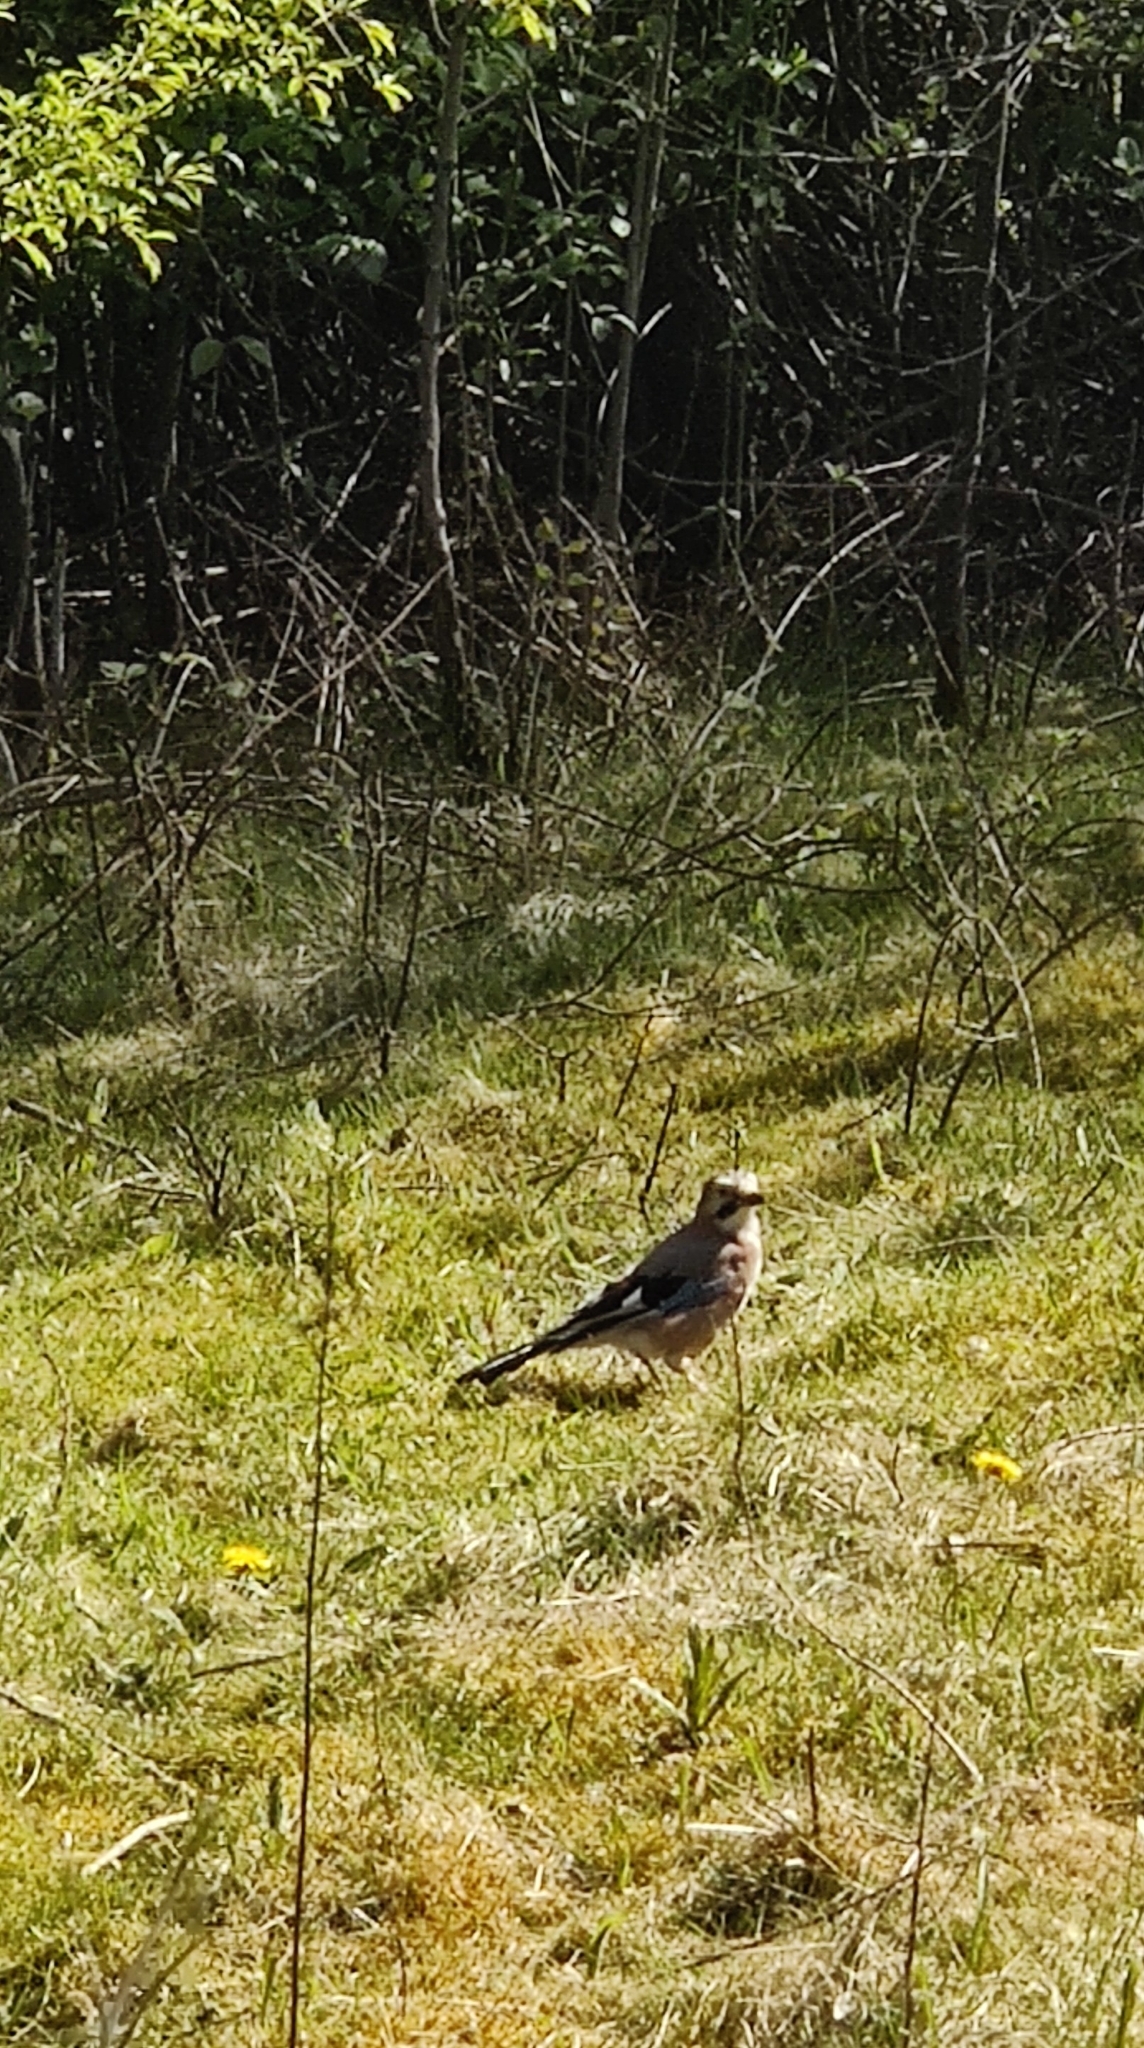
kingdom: Animalia
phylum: Chordata
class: Aves
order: Passeriformes
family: Corvidae
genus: Garrulus
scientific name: Garrulus glandarius
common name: Eurasian jay
